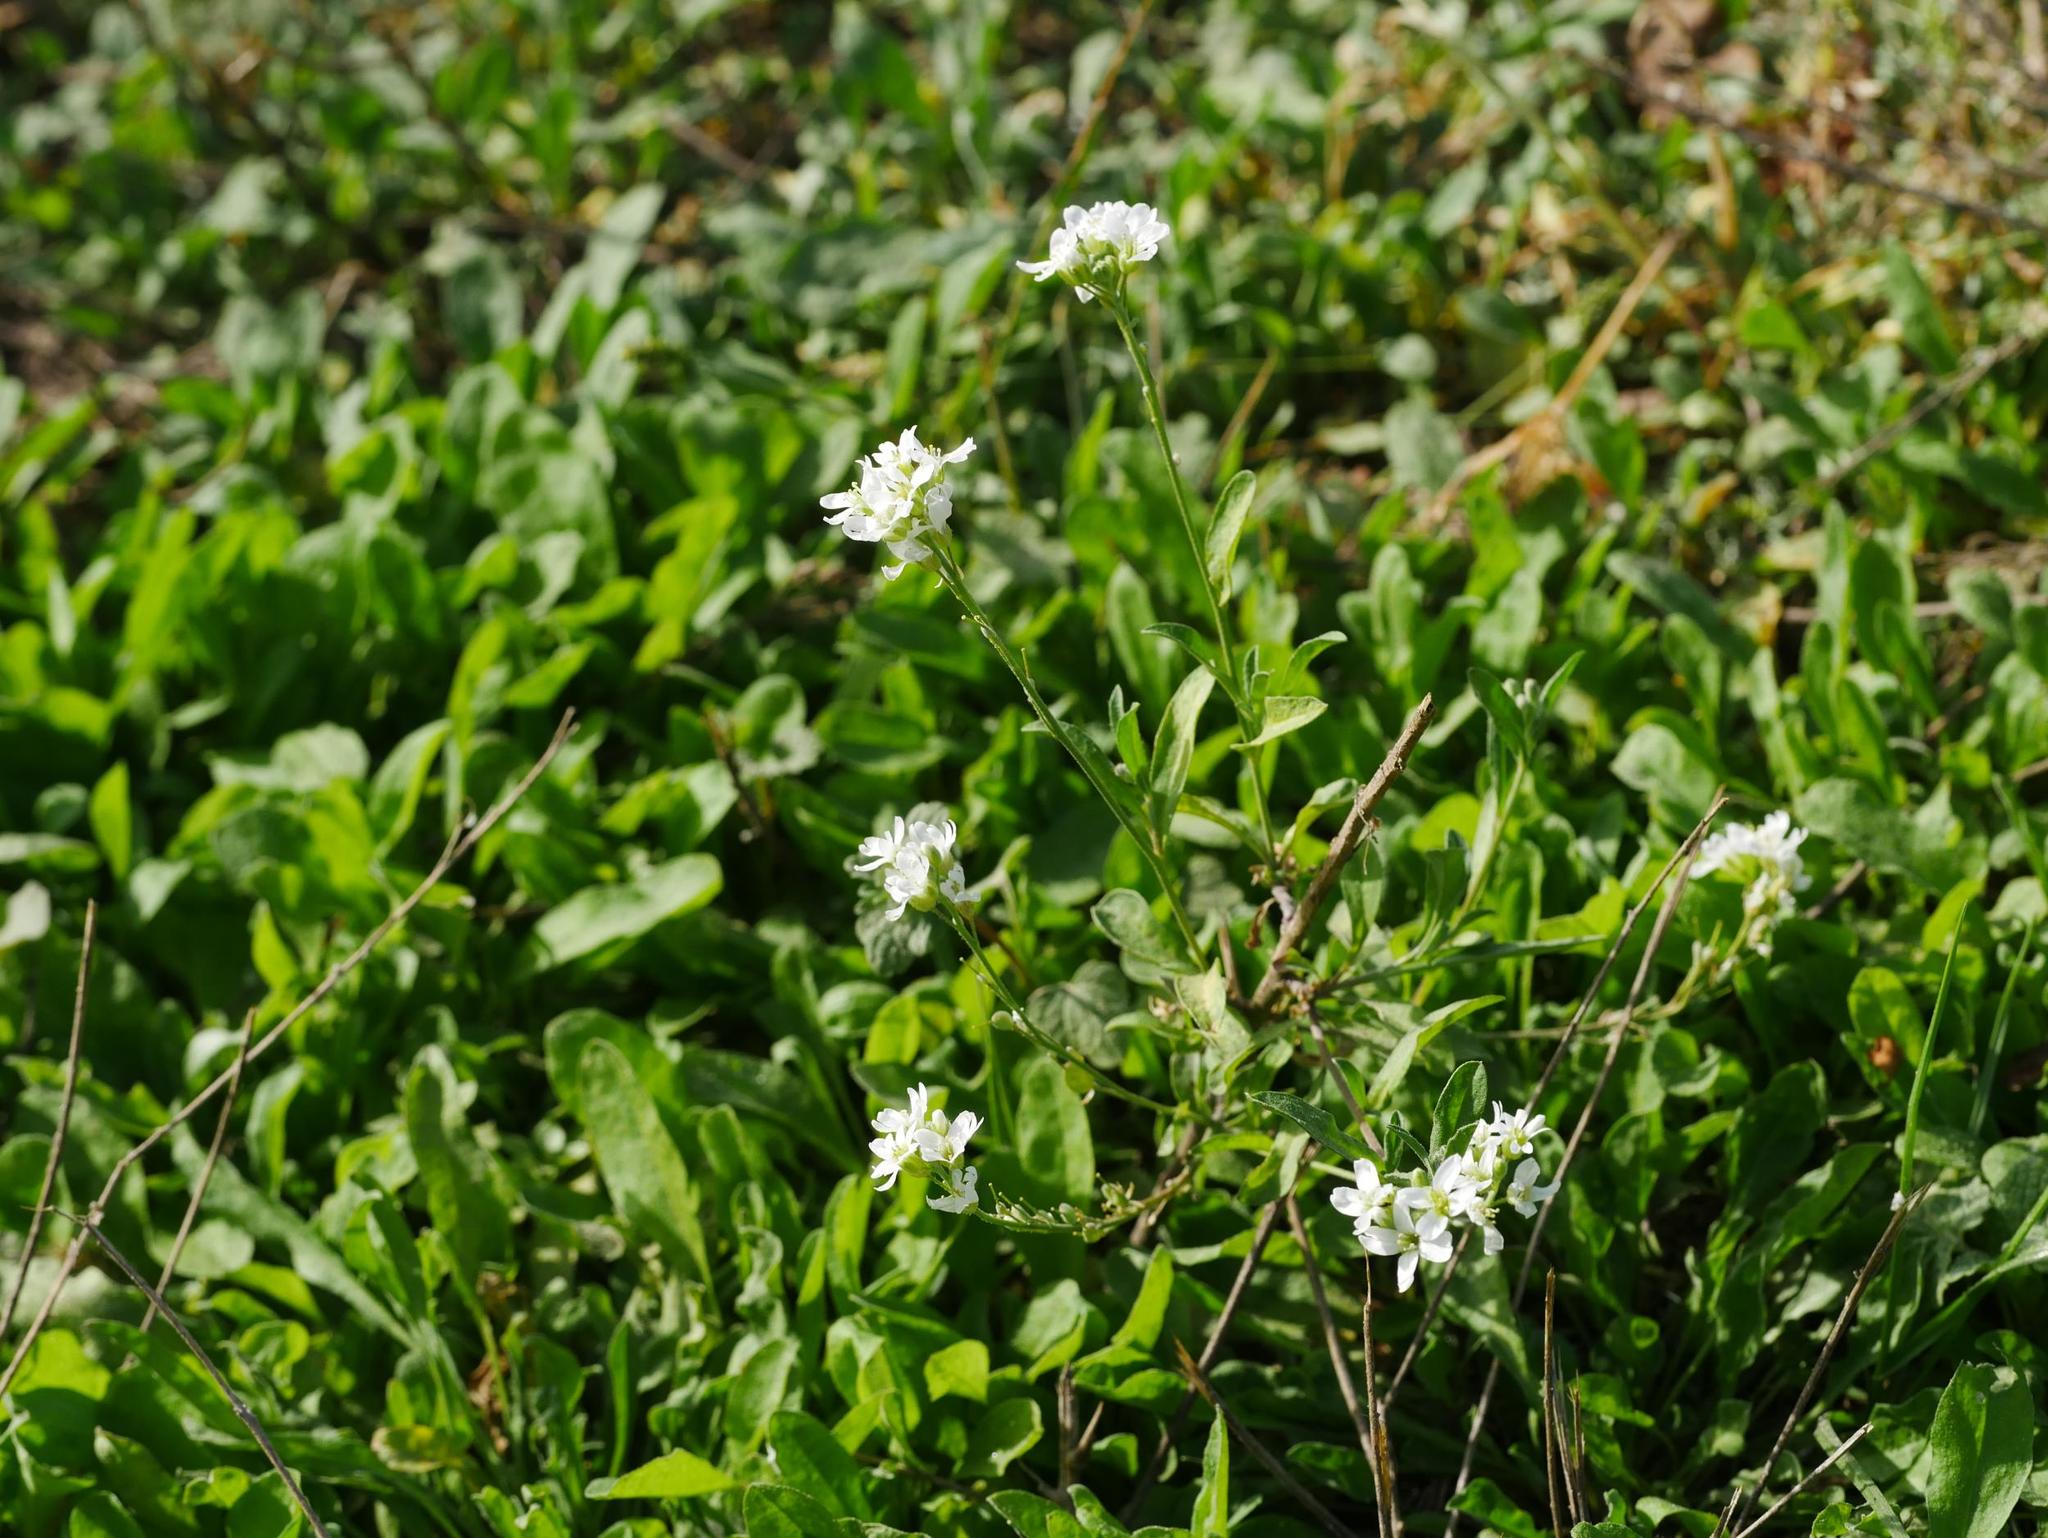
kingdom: Plantae
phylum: Tracheophyta
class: Magnoliopsida
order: Brassicales
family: Brassicaceae
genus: Berteroa
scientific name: Berteroa incana
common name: Hoary alison
